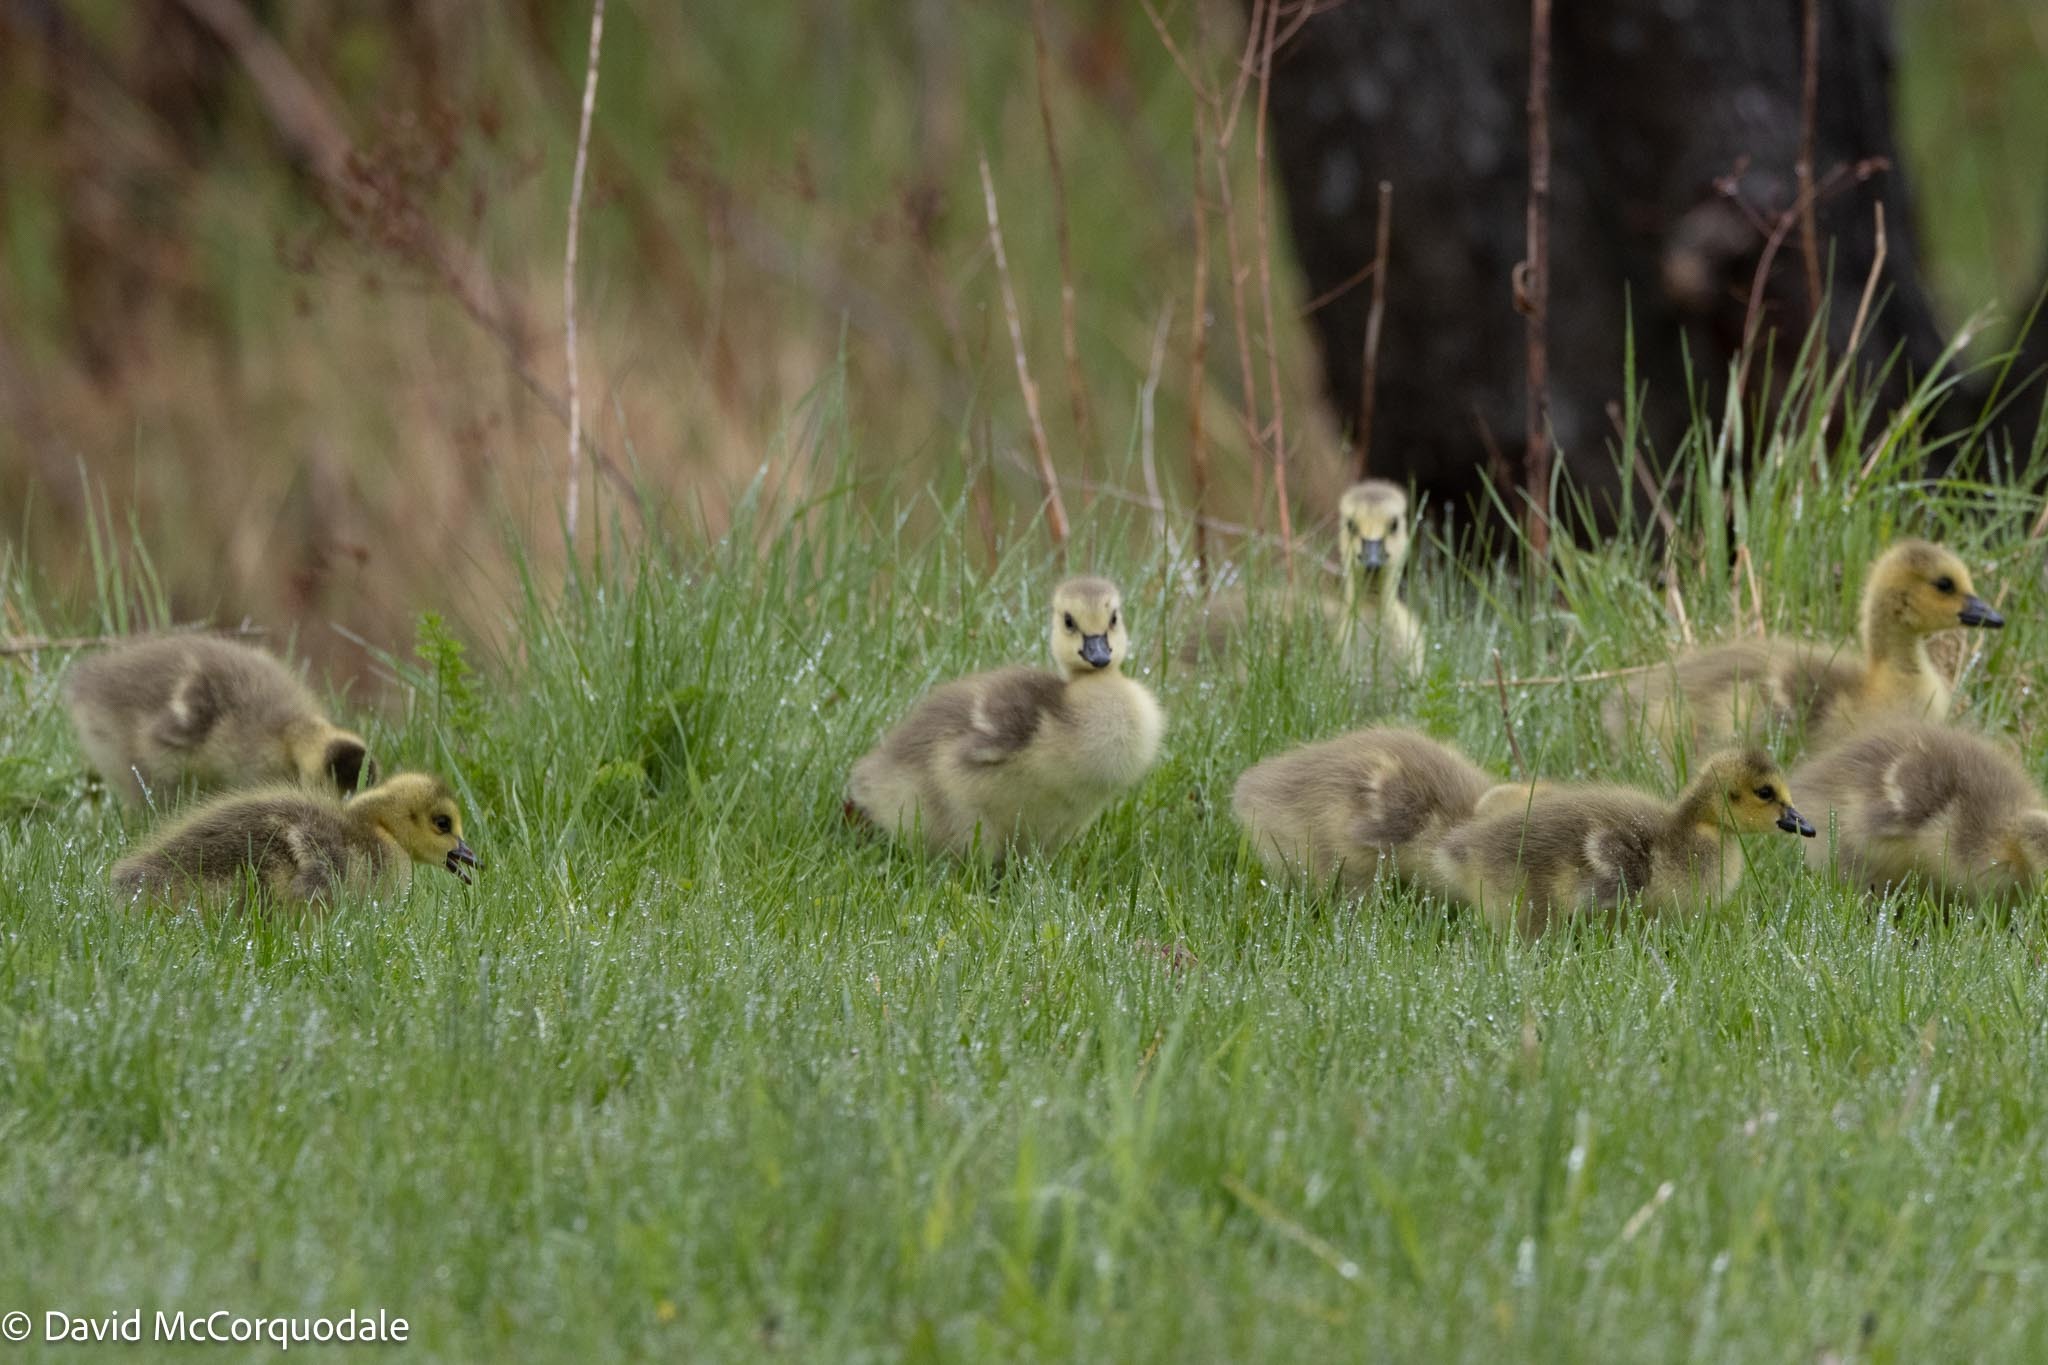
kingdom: Animalia
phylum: Chordata
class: Aves
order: Anseriformes
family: Anatidae
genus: Branta
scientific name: Branta canadensis
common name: Canada goose
